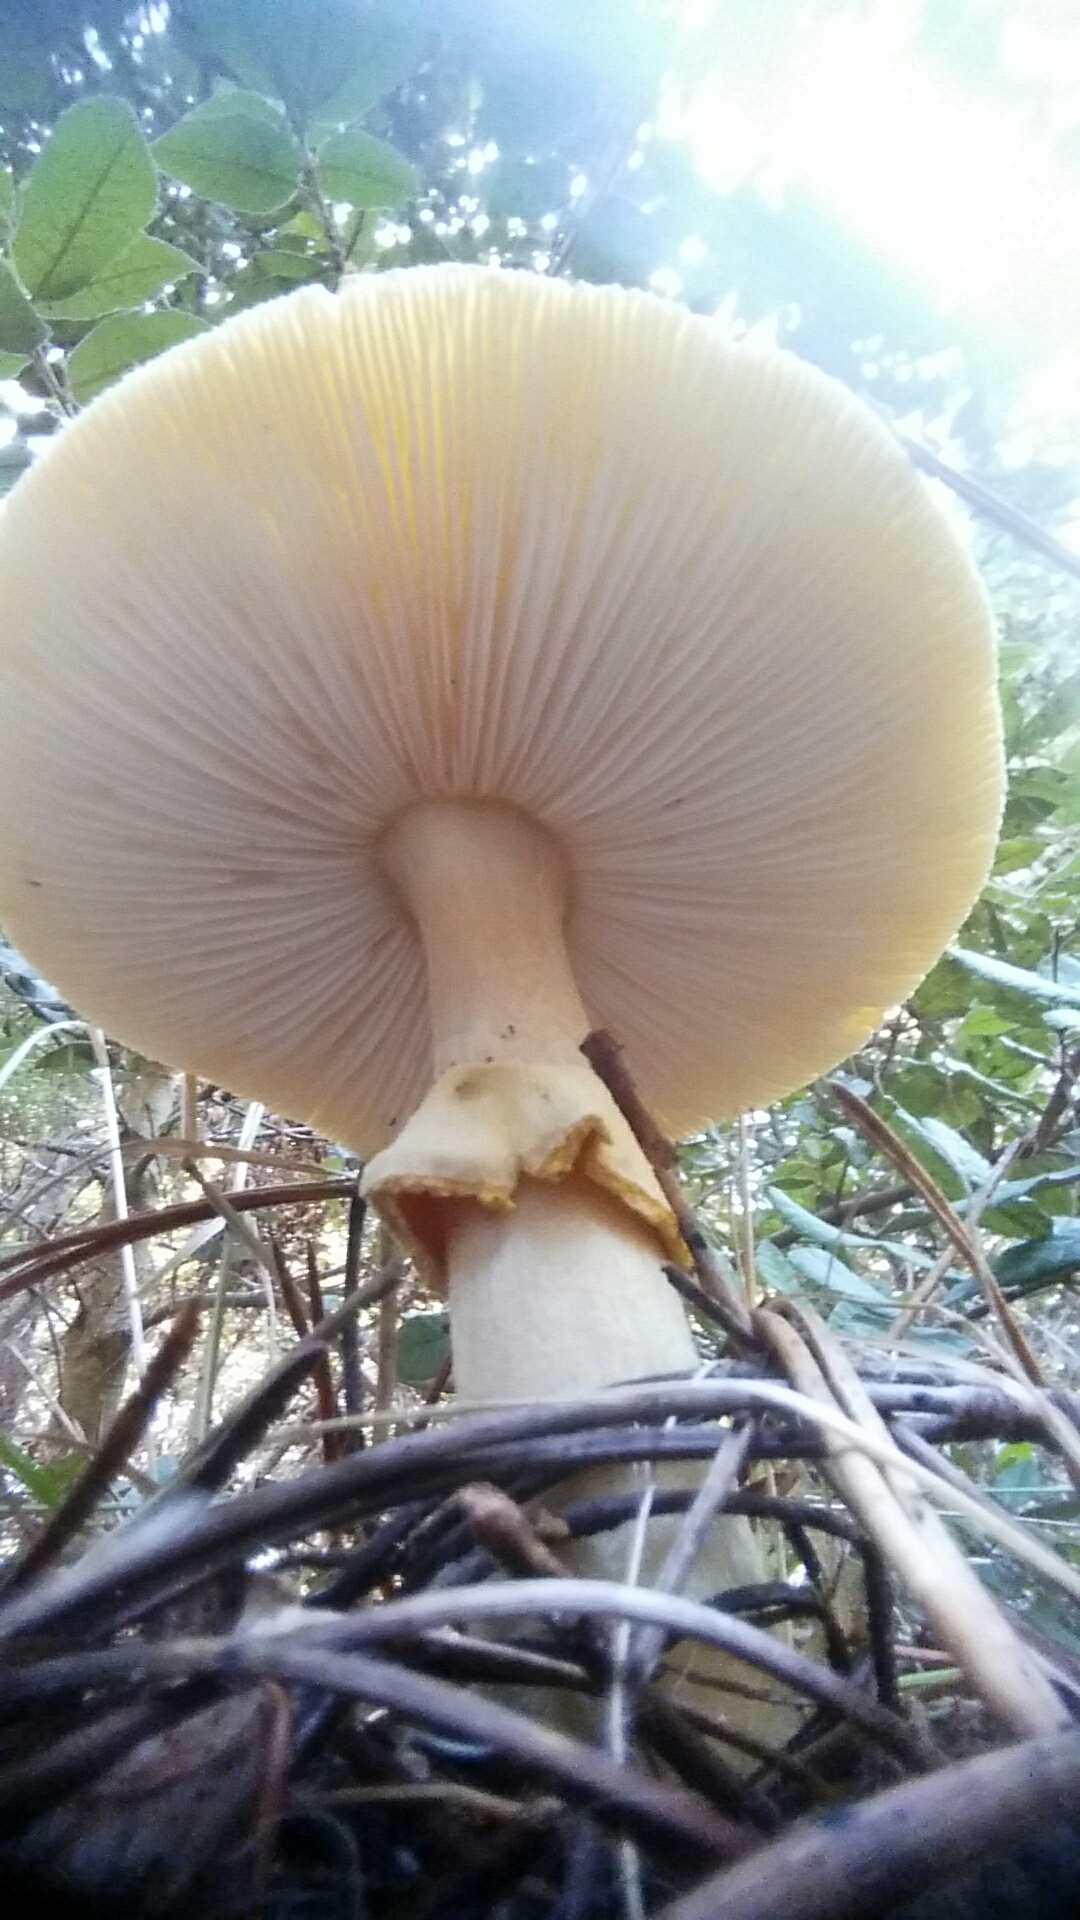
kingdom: Fungi
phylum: Basidiomycota
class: Agaricomycetes
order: Agaricales
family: Amanitaceae
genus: Amanita
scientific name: Amanita augusta
